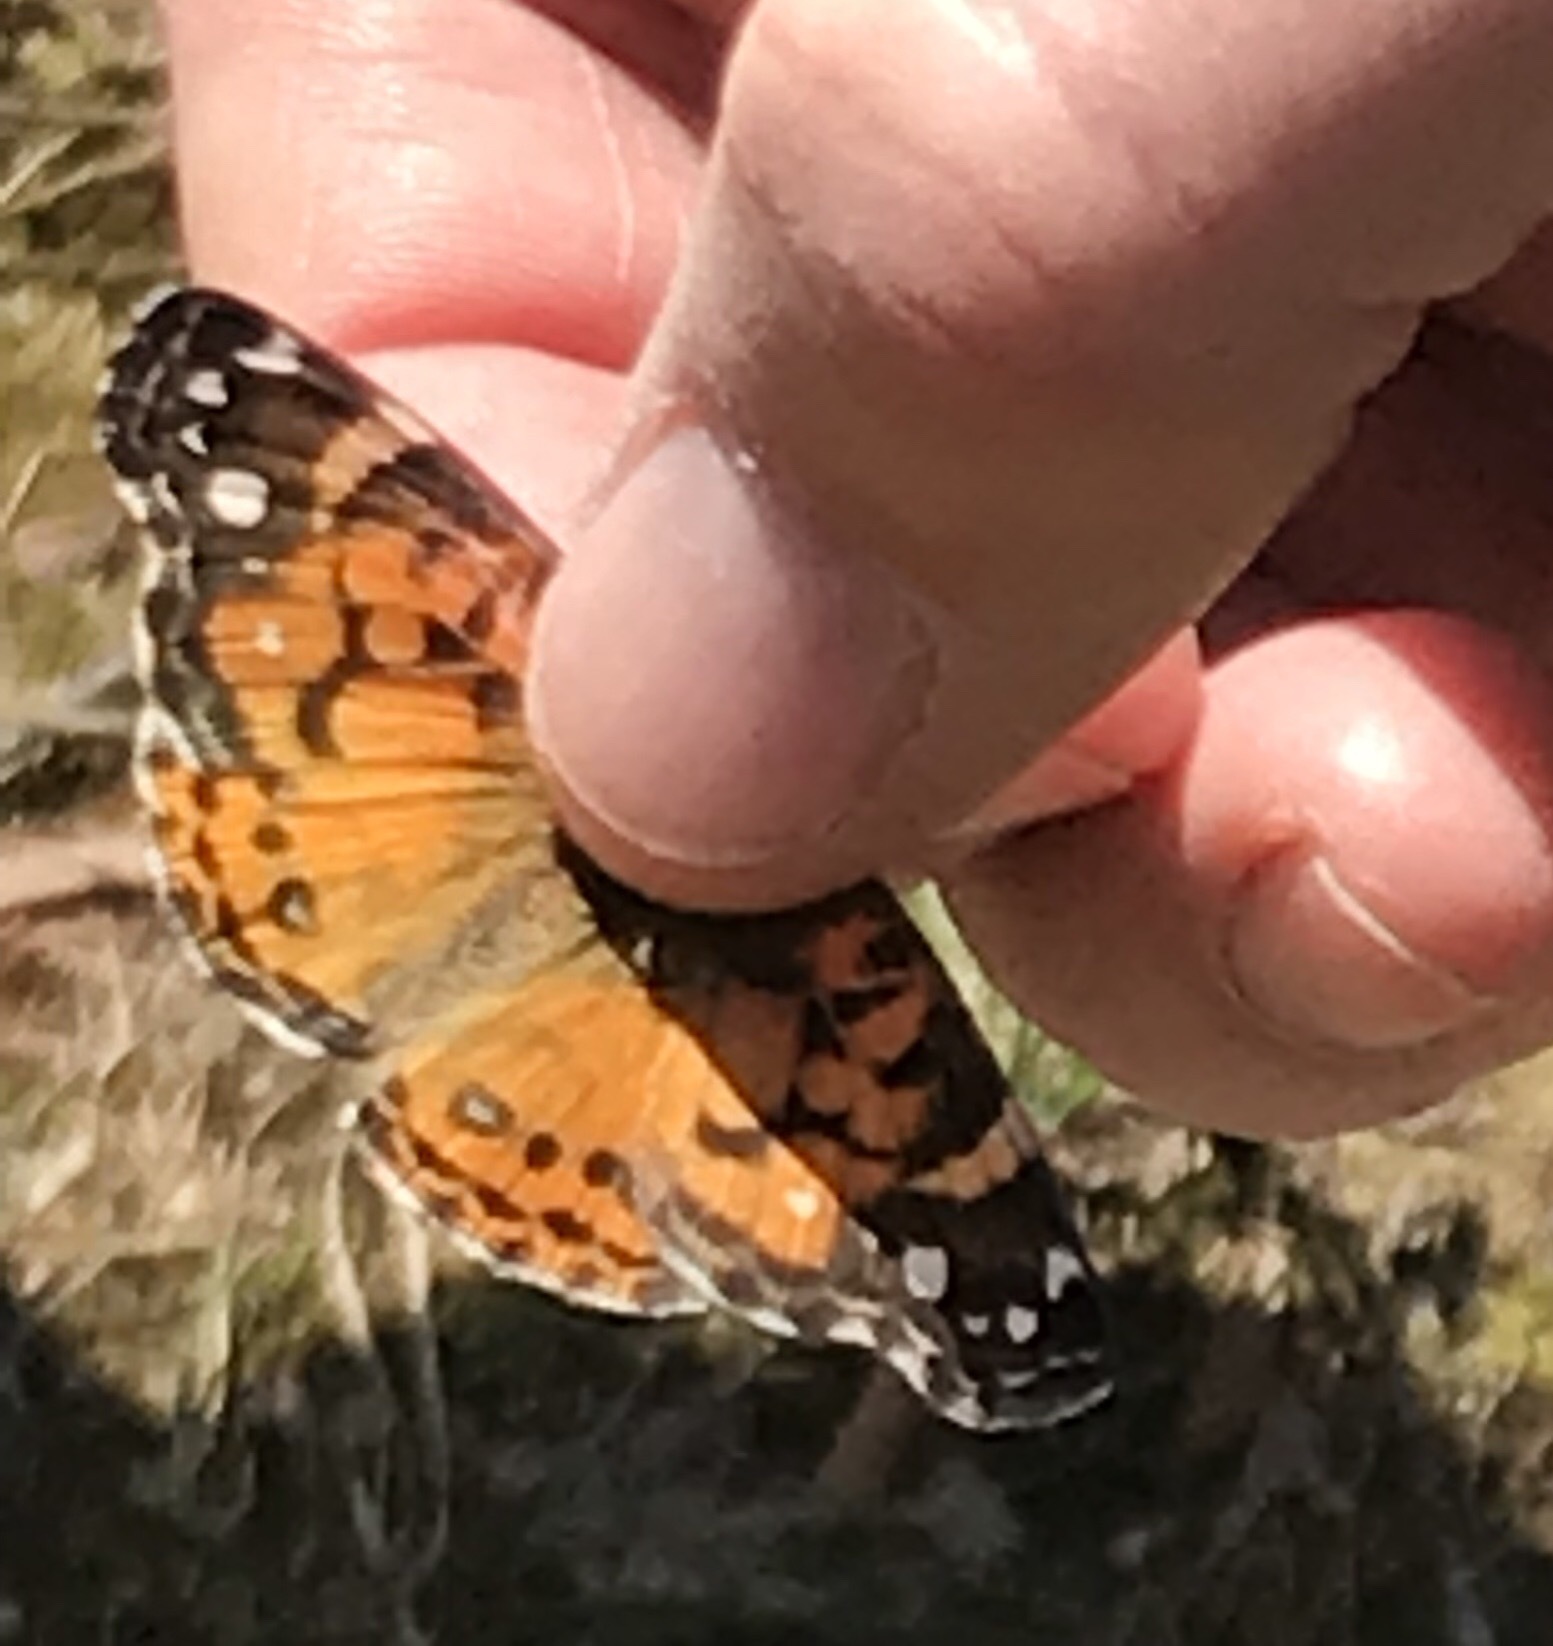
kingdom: Animalia
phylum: Arthropoda
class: Insecta
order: Lepidoptera
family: Nymphalidae
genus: Vanessa
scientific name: Vanessa virginiensis
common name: American lady
